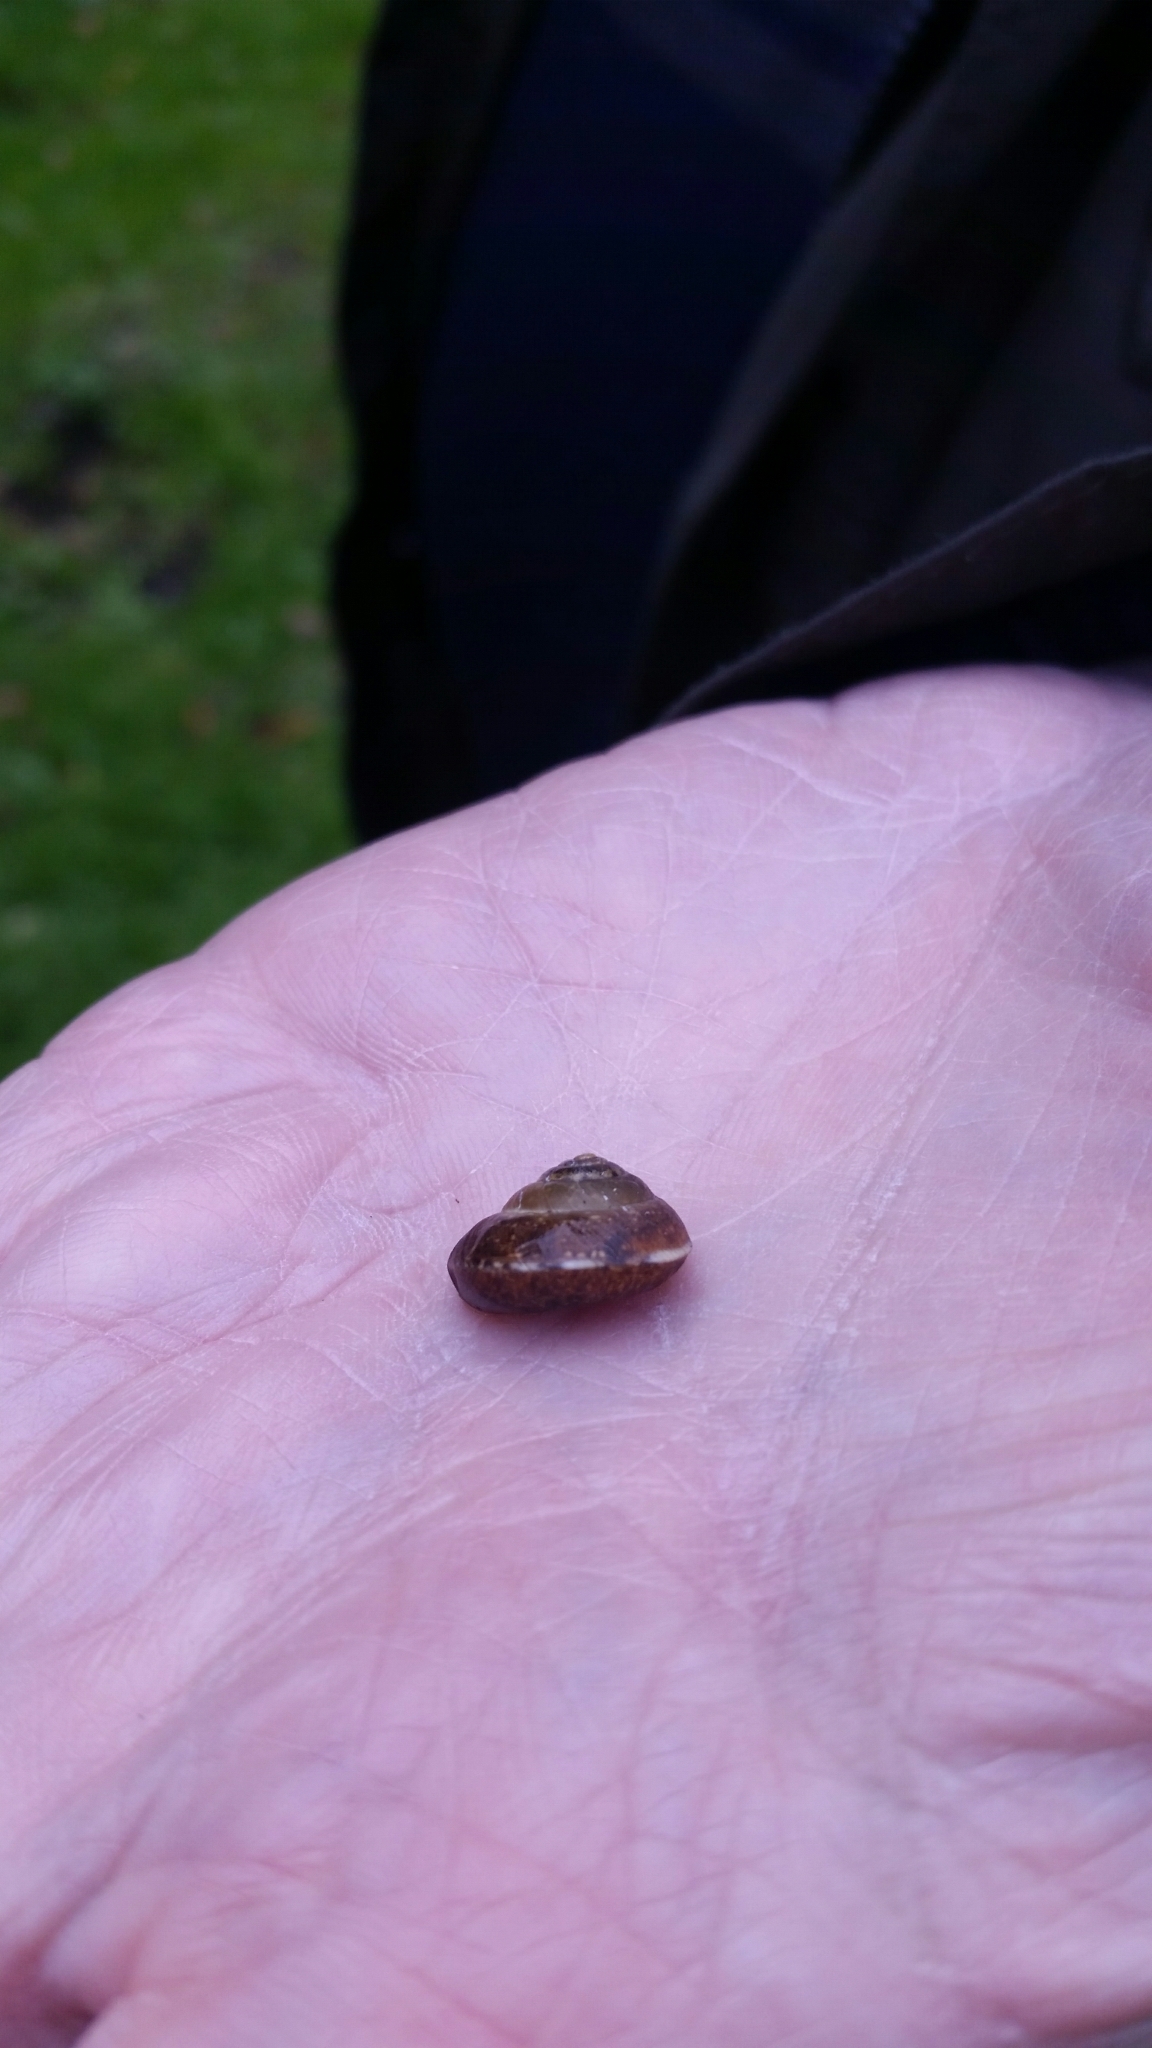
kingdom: Animalia
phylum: Mollusca
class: Gastropoda
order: Stylommatophora
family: Hygromiidae
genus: Hygromia
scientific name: Hygromia cinctella
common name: Girdled snail
